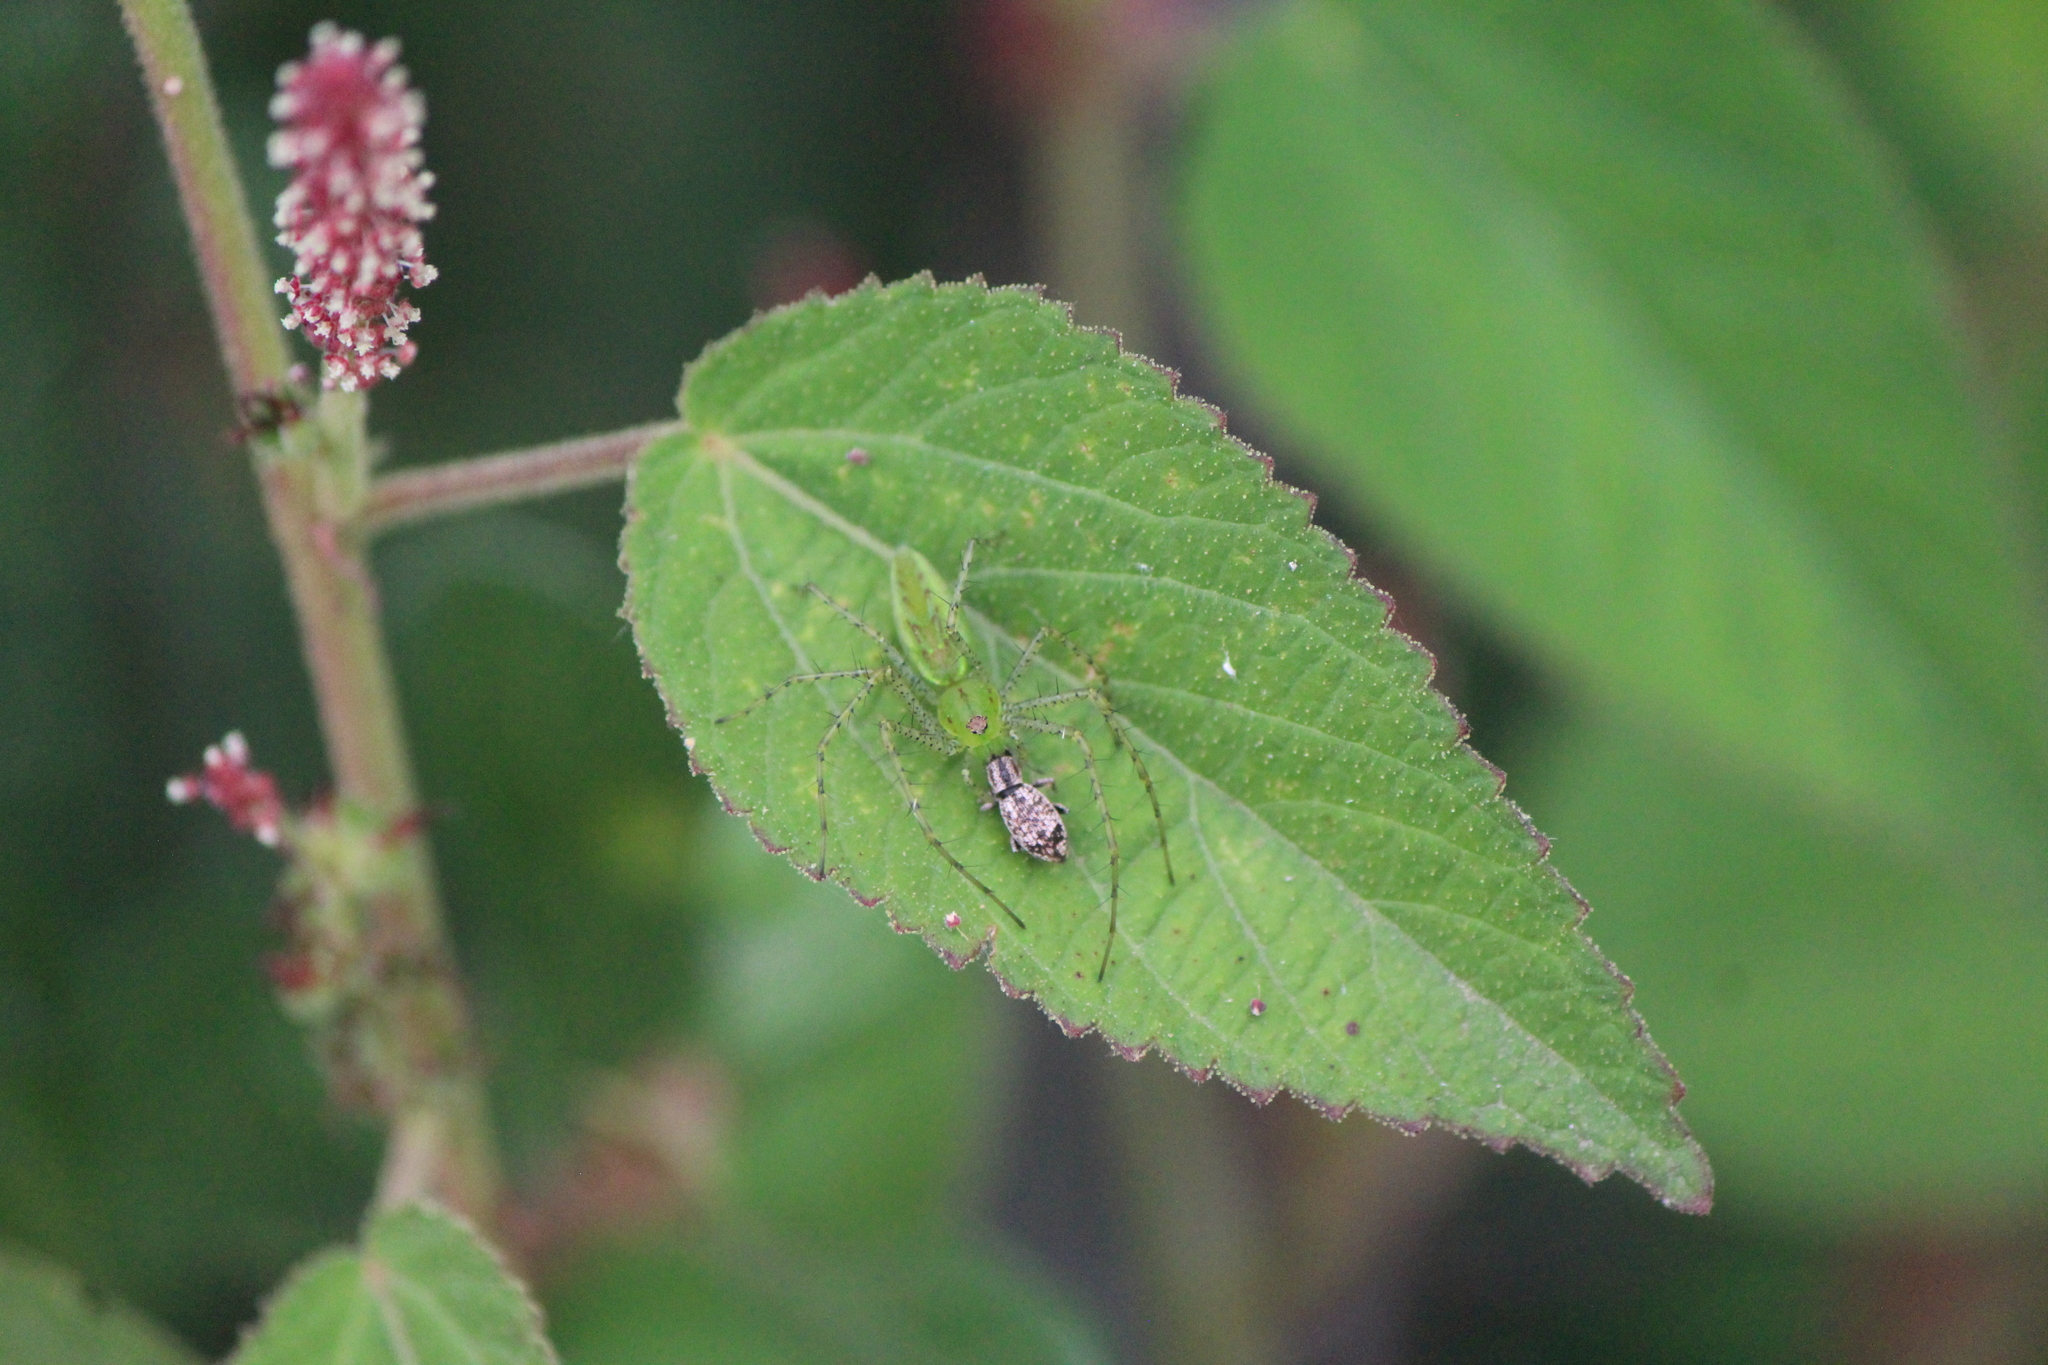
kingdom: Animalia
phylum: Arthropoda
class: Insecta
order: Coleoptera
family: Curculionidae
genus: Mitostylus
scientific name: Mitostylus setosus
